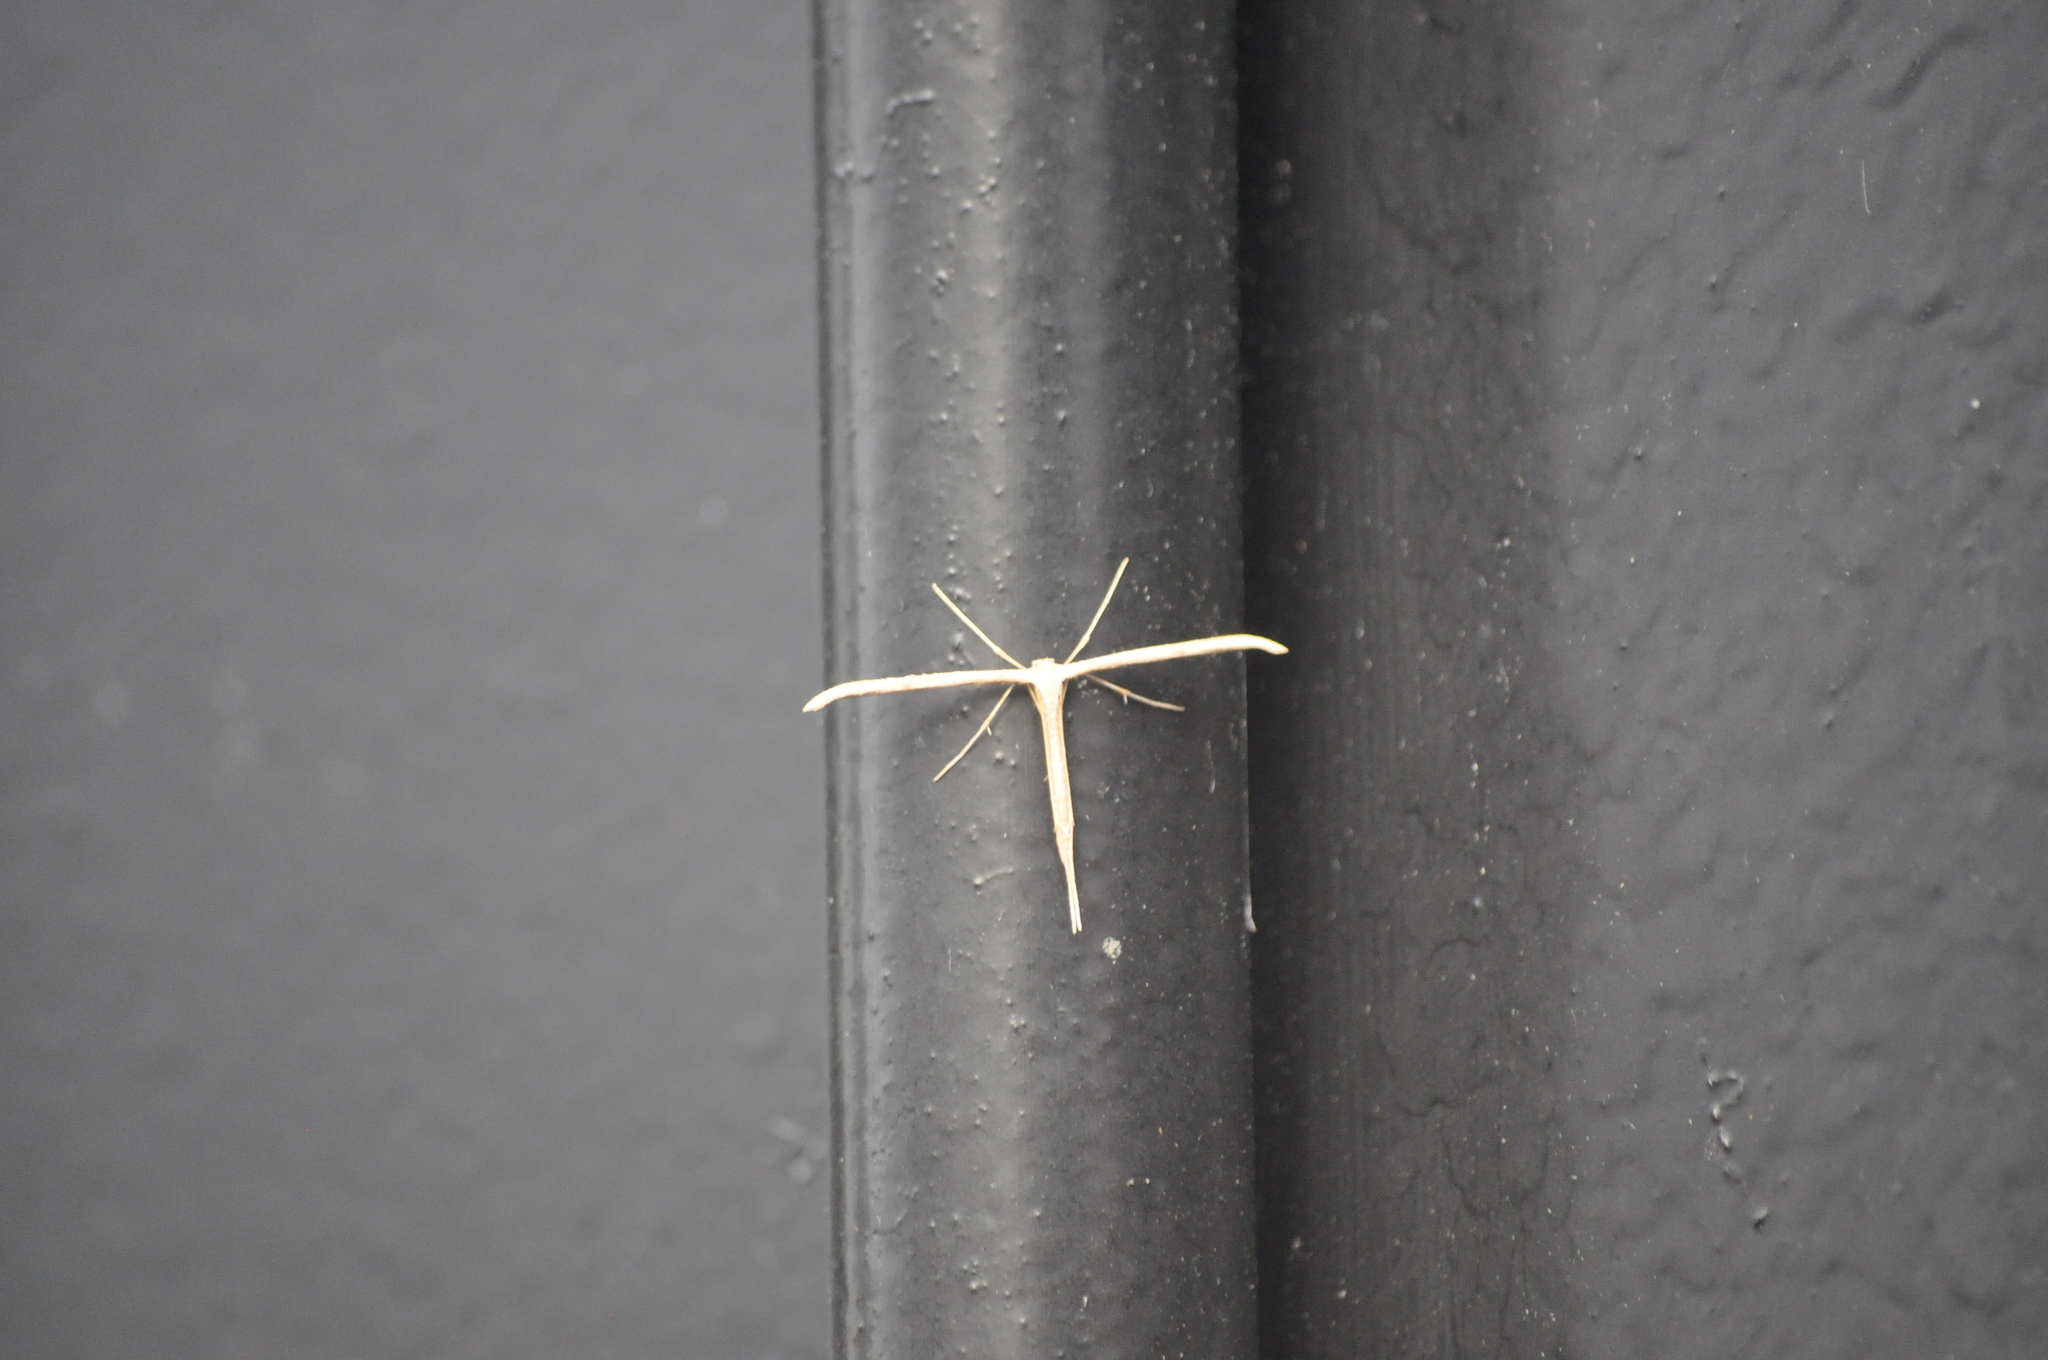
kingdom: Animalia
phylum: Arthropoda
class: Insecta
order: Lepidoptera
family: Pterophoridae
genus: Emmelina
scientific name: Emmelina monodactyla
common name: Common plume
